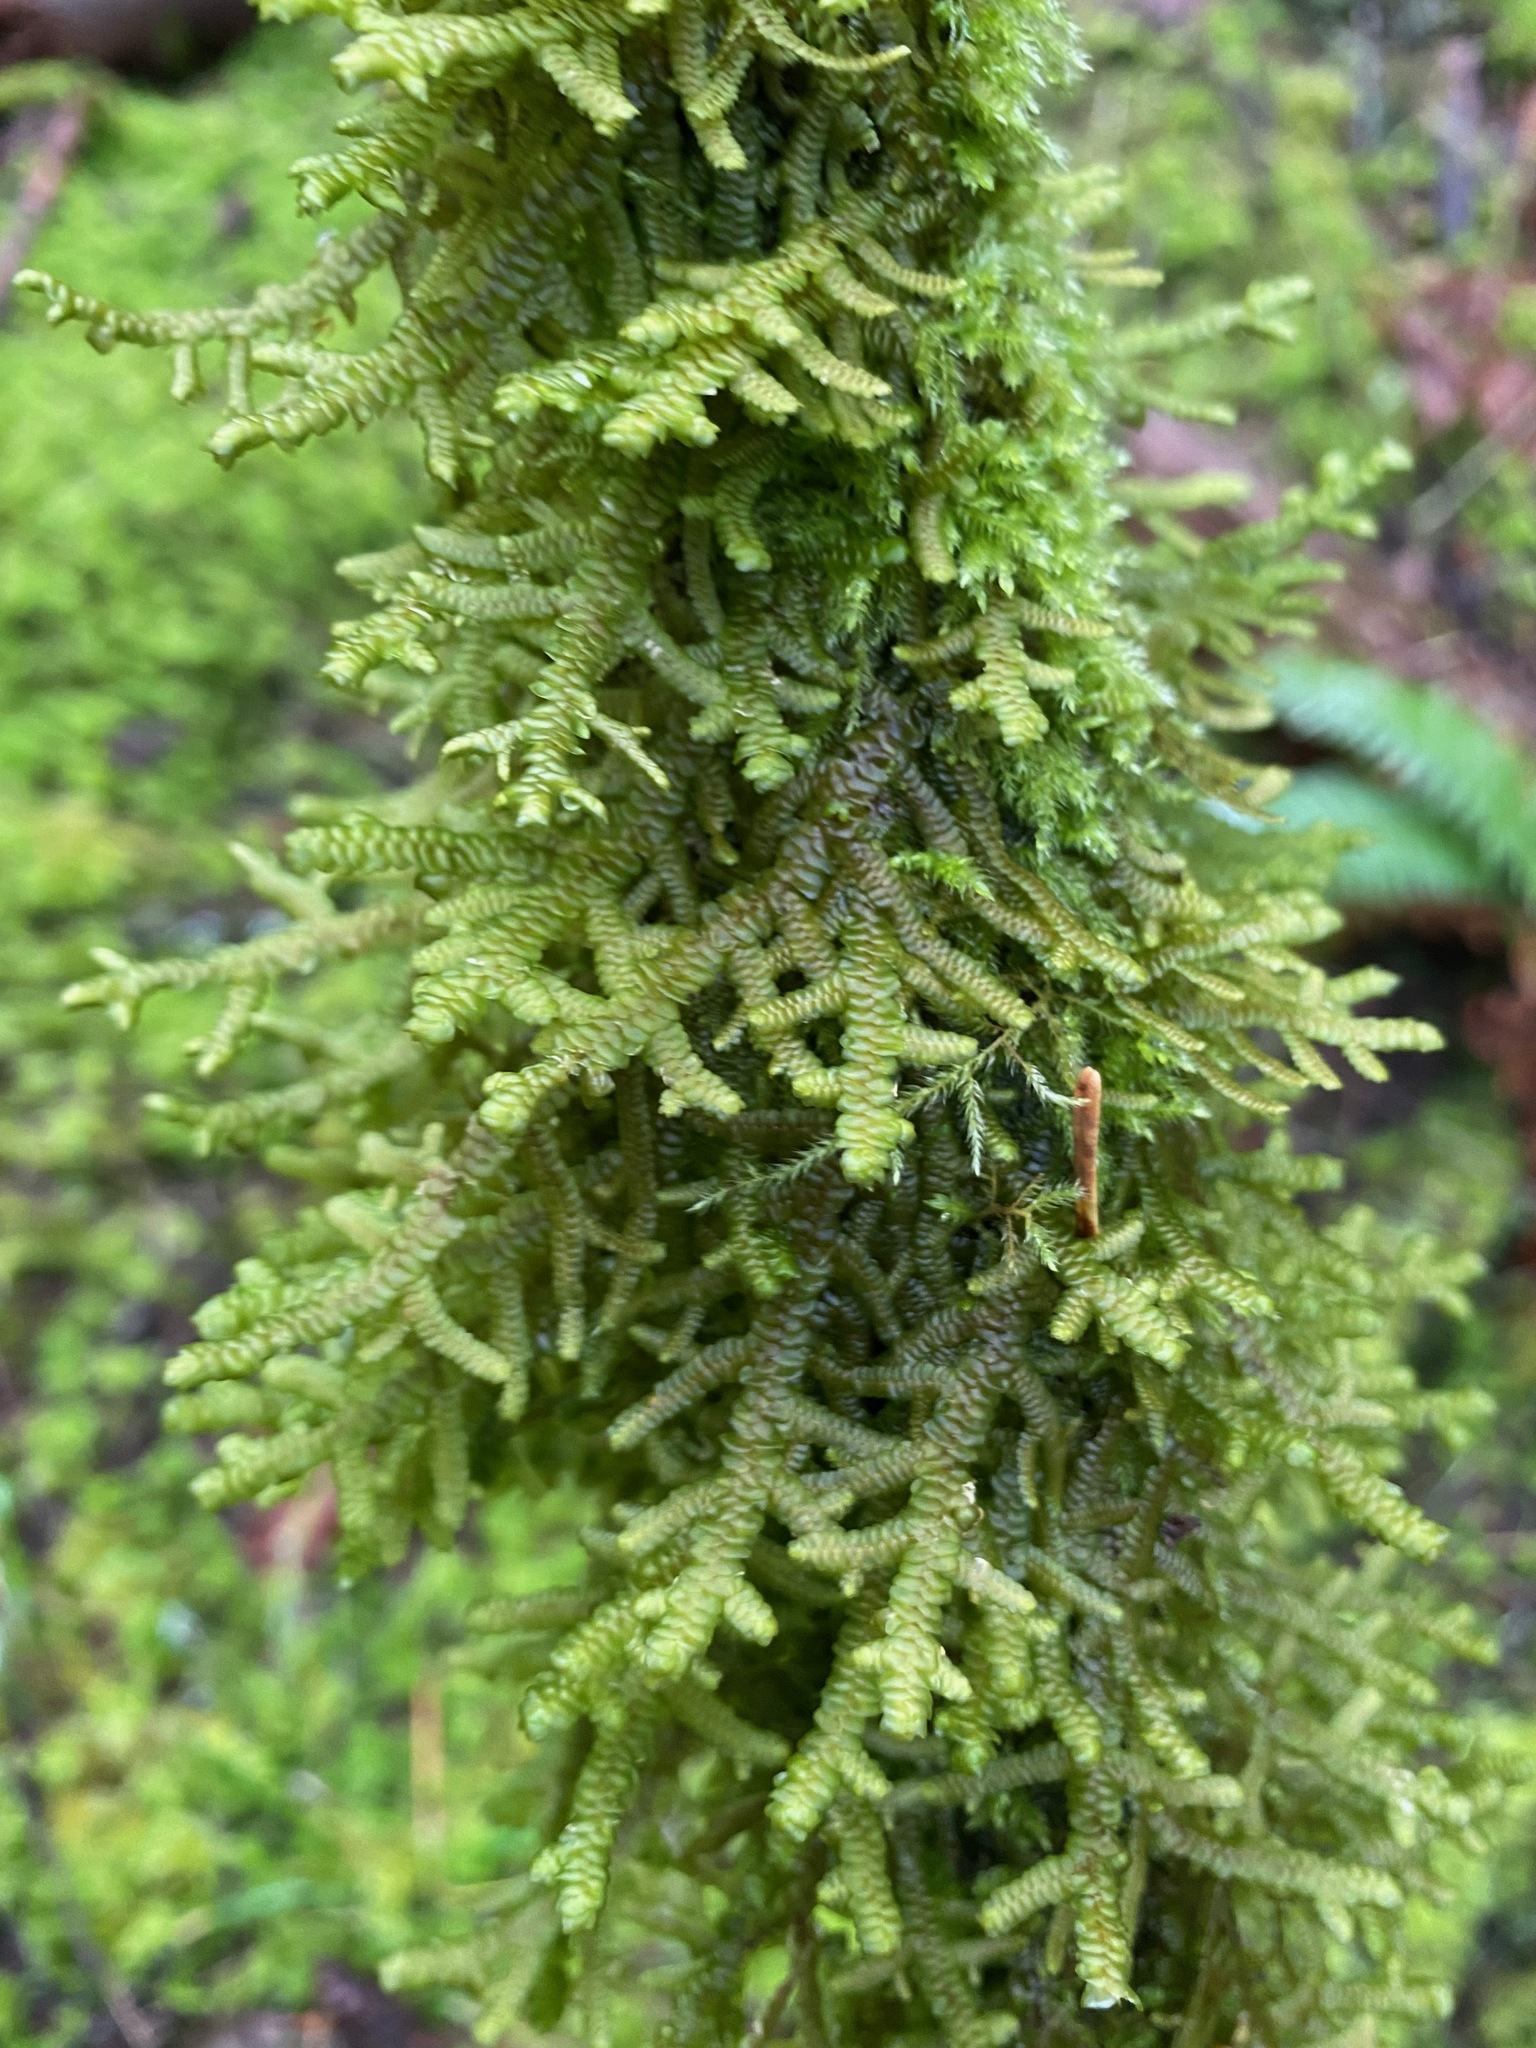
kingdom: Plantae
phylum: Marchantiophyta
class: Jungermanniopsida
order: Porellales
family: Porellaceae
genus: Porella
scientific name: Porella navicularis
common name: Tree ruffle liverwort
